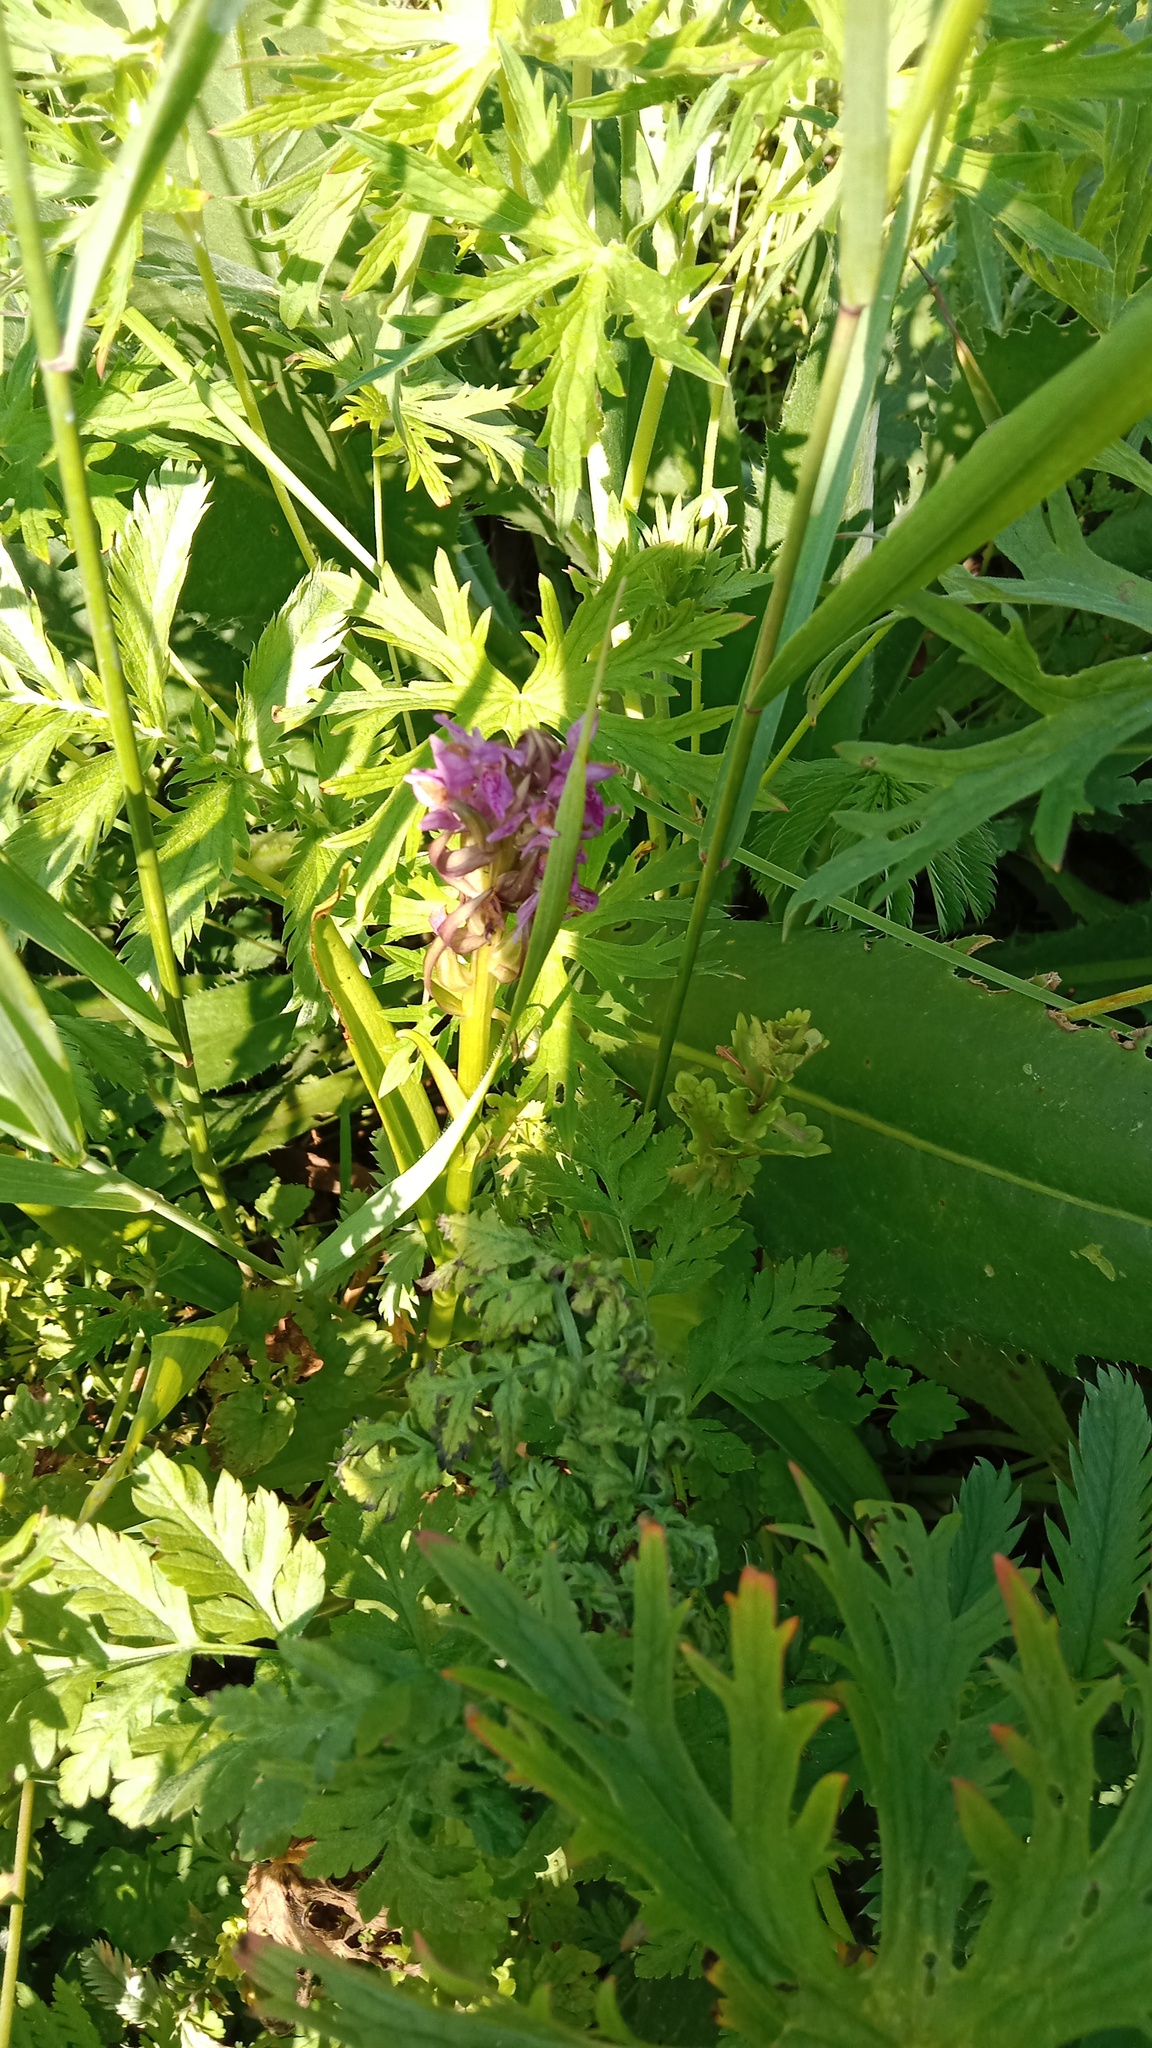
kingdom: Plantae
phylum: Tracheophyta
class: Liliopsida
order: Asparagales
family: Orchidaceae
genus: Dactylorhiza
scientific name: Dactylorhiza incarnata
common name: Early marsh-orchid
